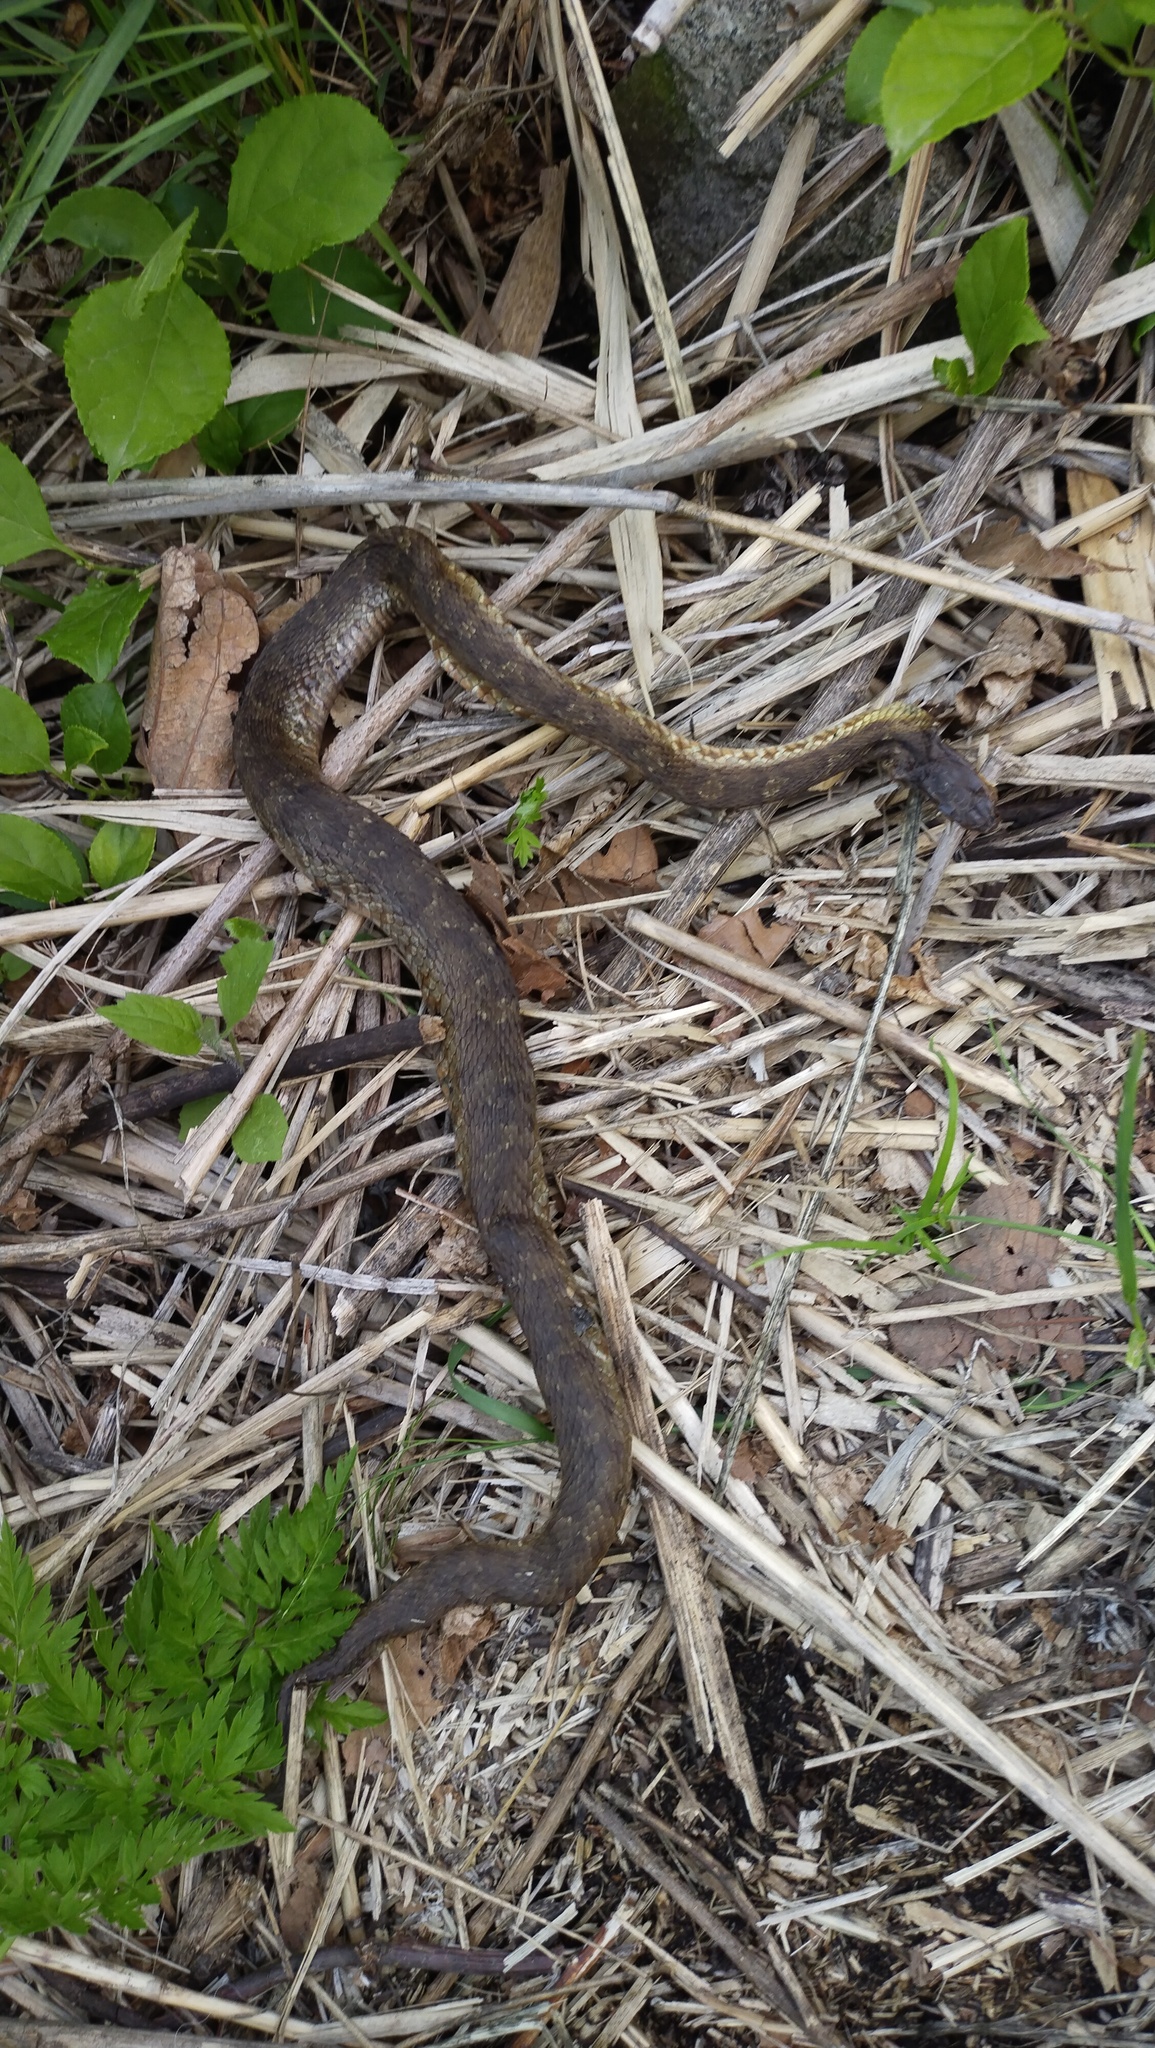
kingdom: Animalia
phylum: Chordata
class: Squamata
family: Viperidae
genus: Gloydius
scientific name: Gloydius ussuriensis
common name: Ussuri mamushi
